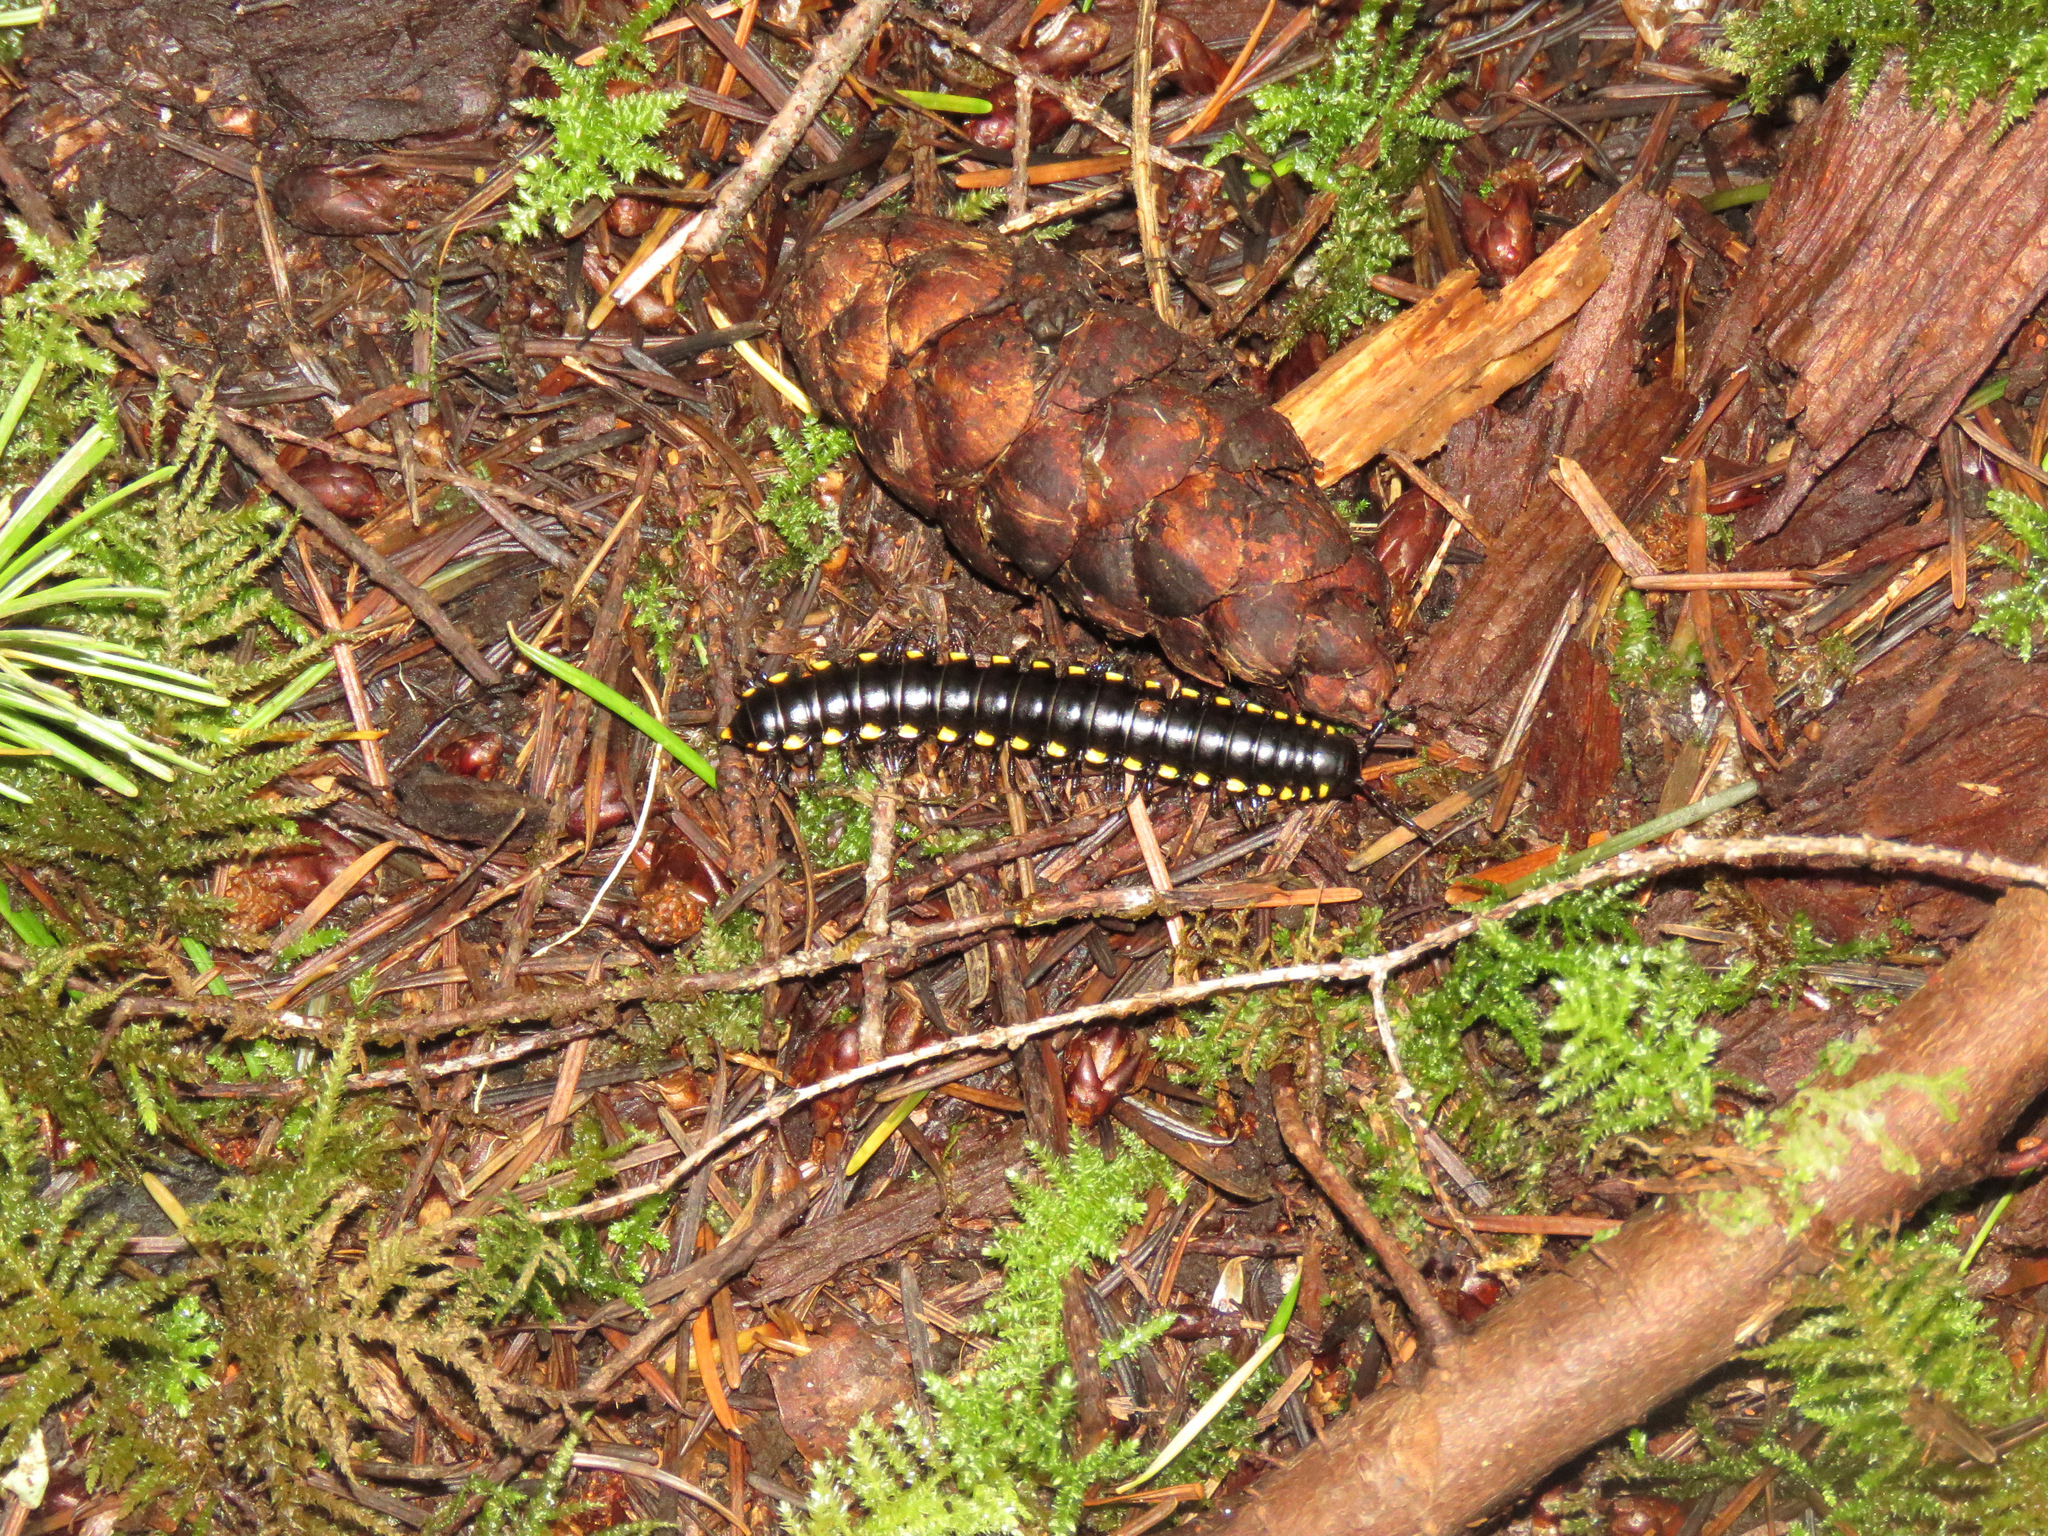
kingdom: Animalia
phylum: Arthropoda
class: Diplopoda
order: Polydesmida
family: Xystodesmidae
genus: Harpaphe
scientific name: Harpaphe haydeniana
